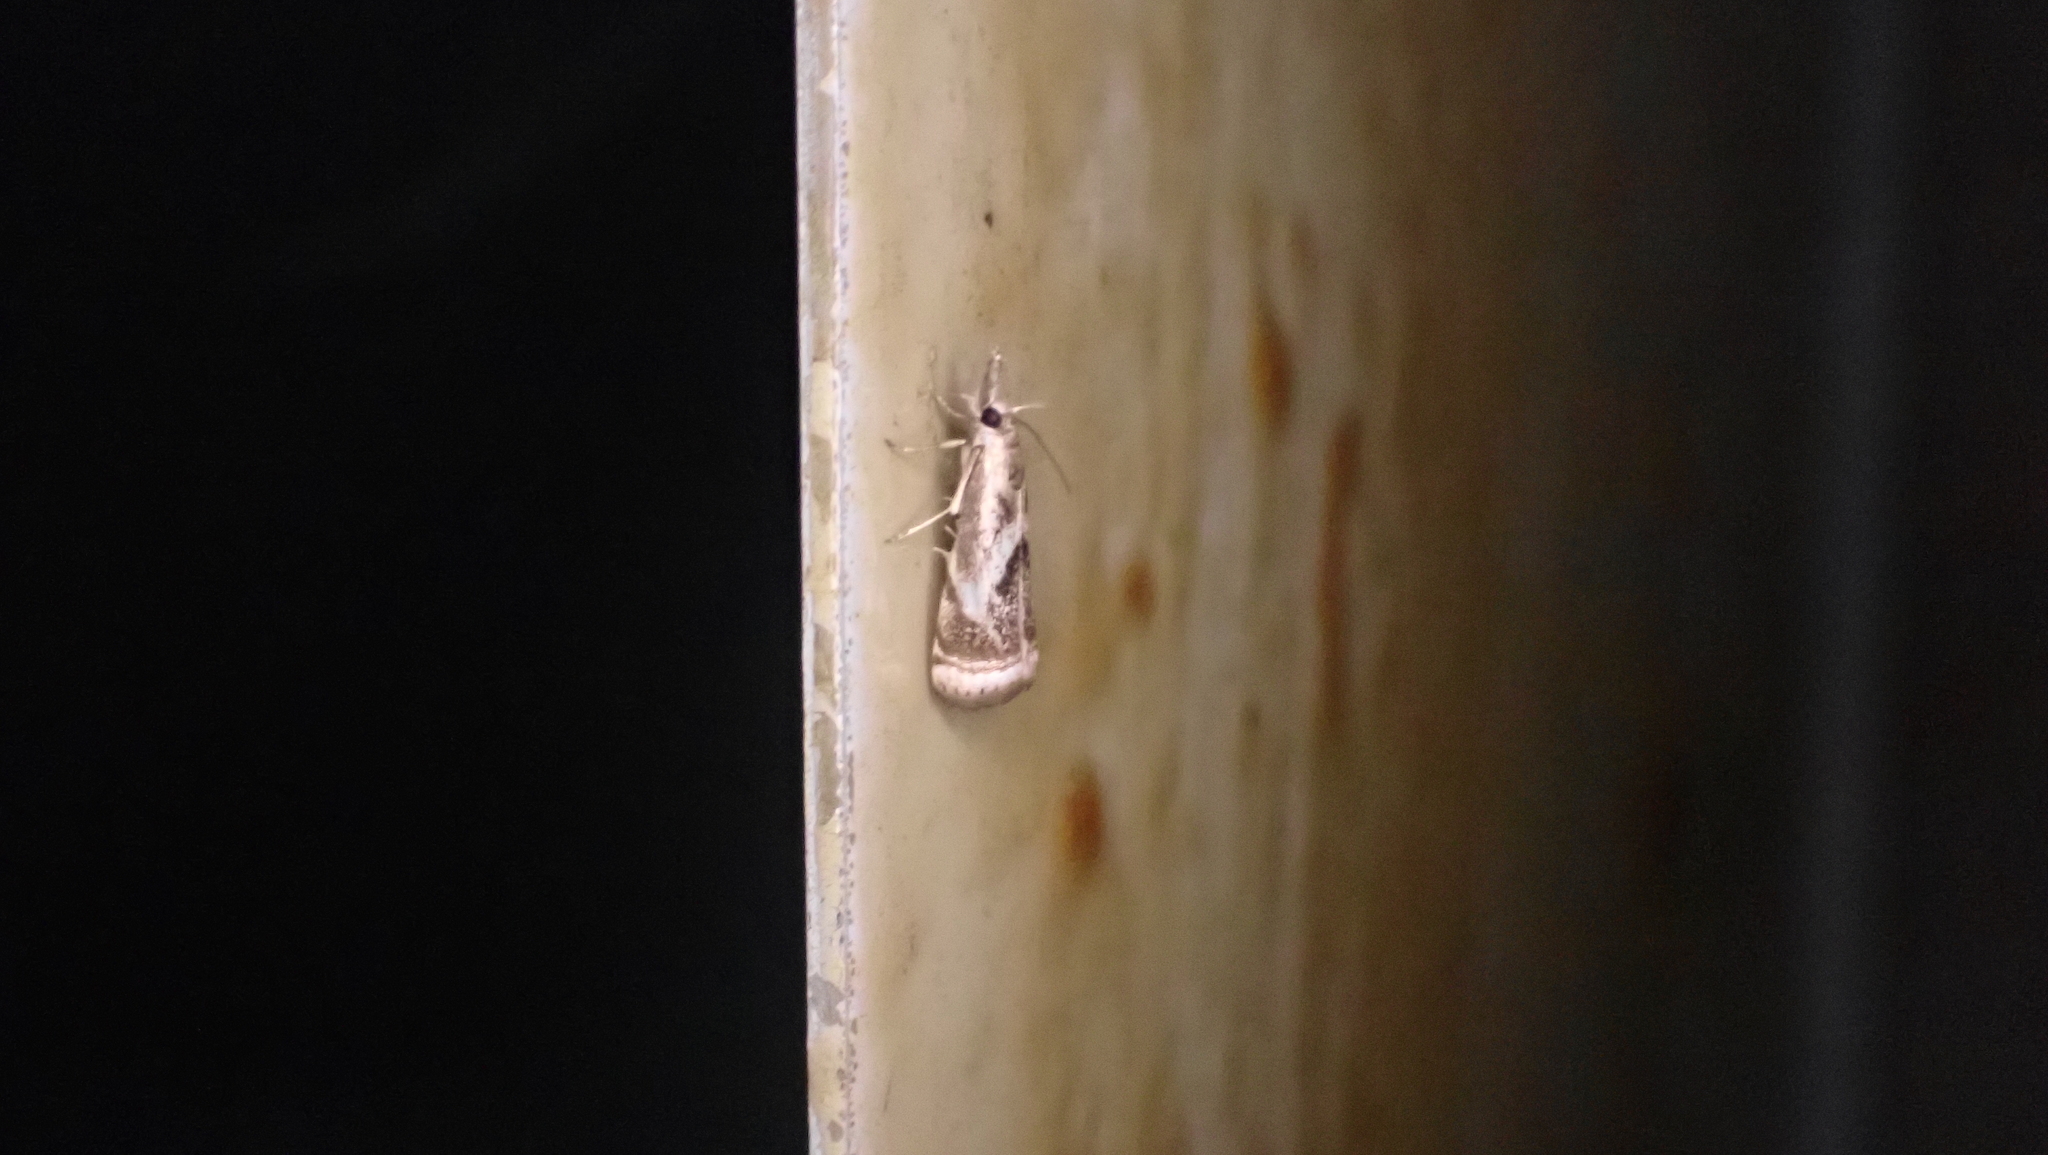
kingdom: Animalia
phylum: Arthropoda
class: Insecta
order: Lepidoptera
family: Crambidae
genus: Microcrambus
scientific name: Microcrambus elegans
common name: Elegant grass-veneer
